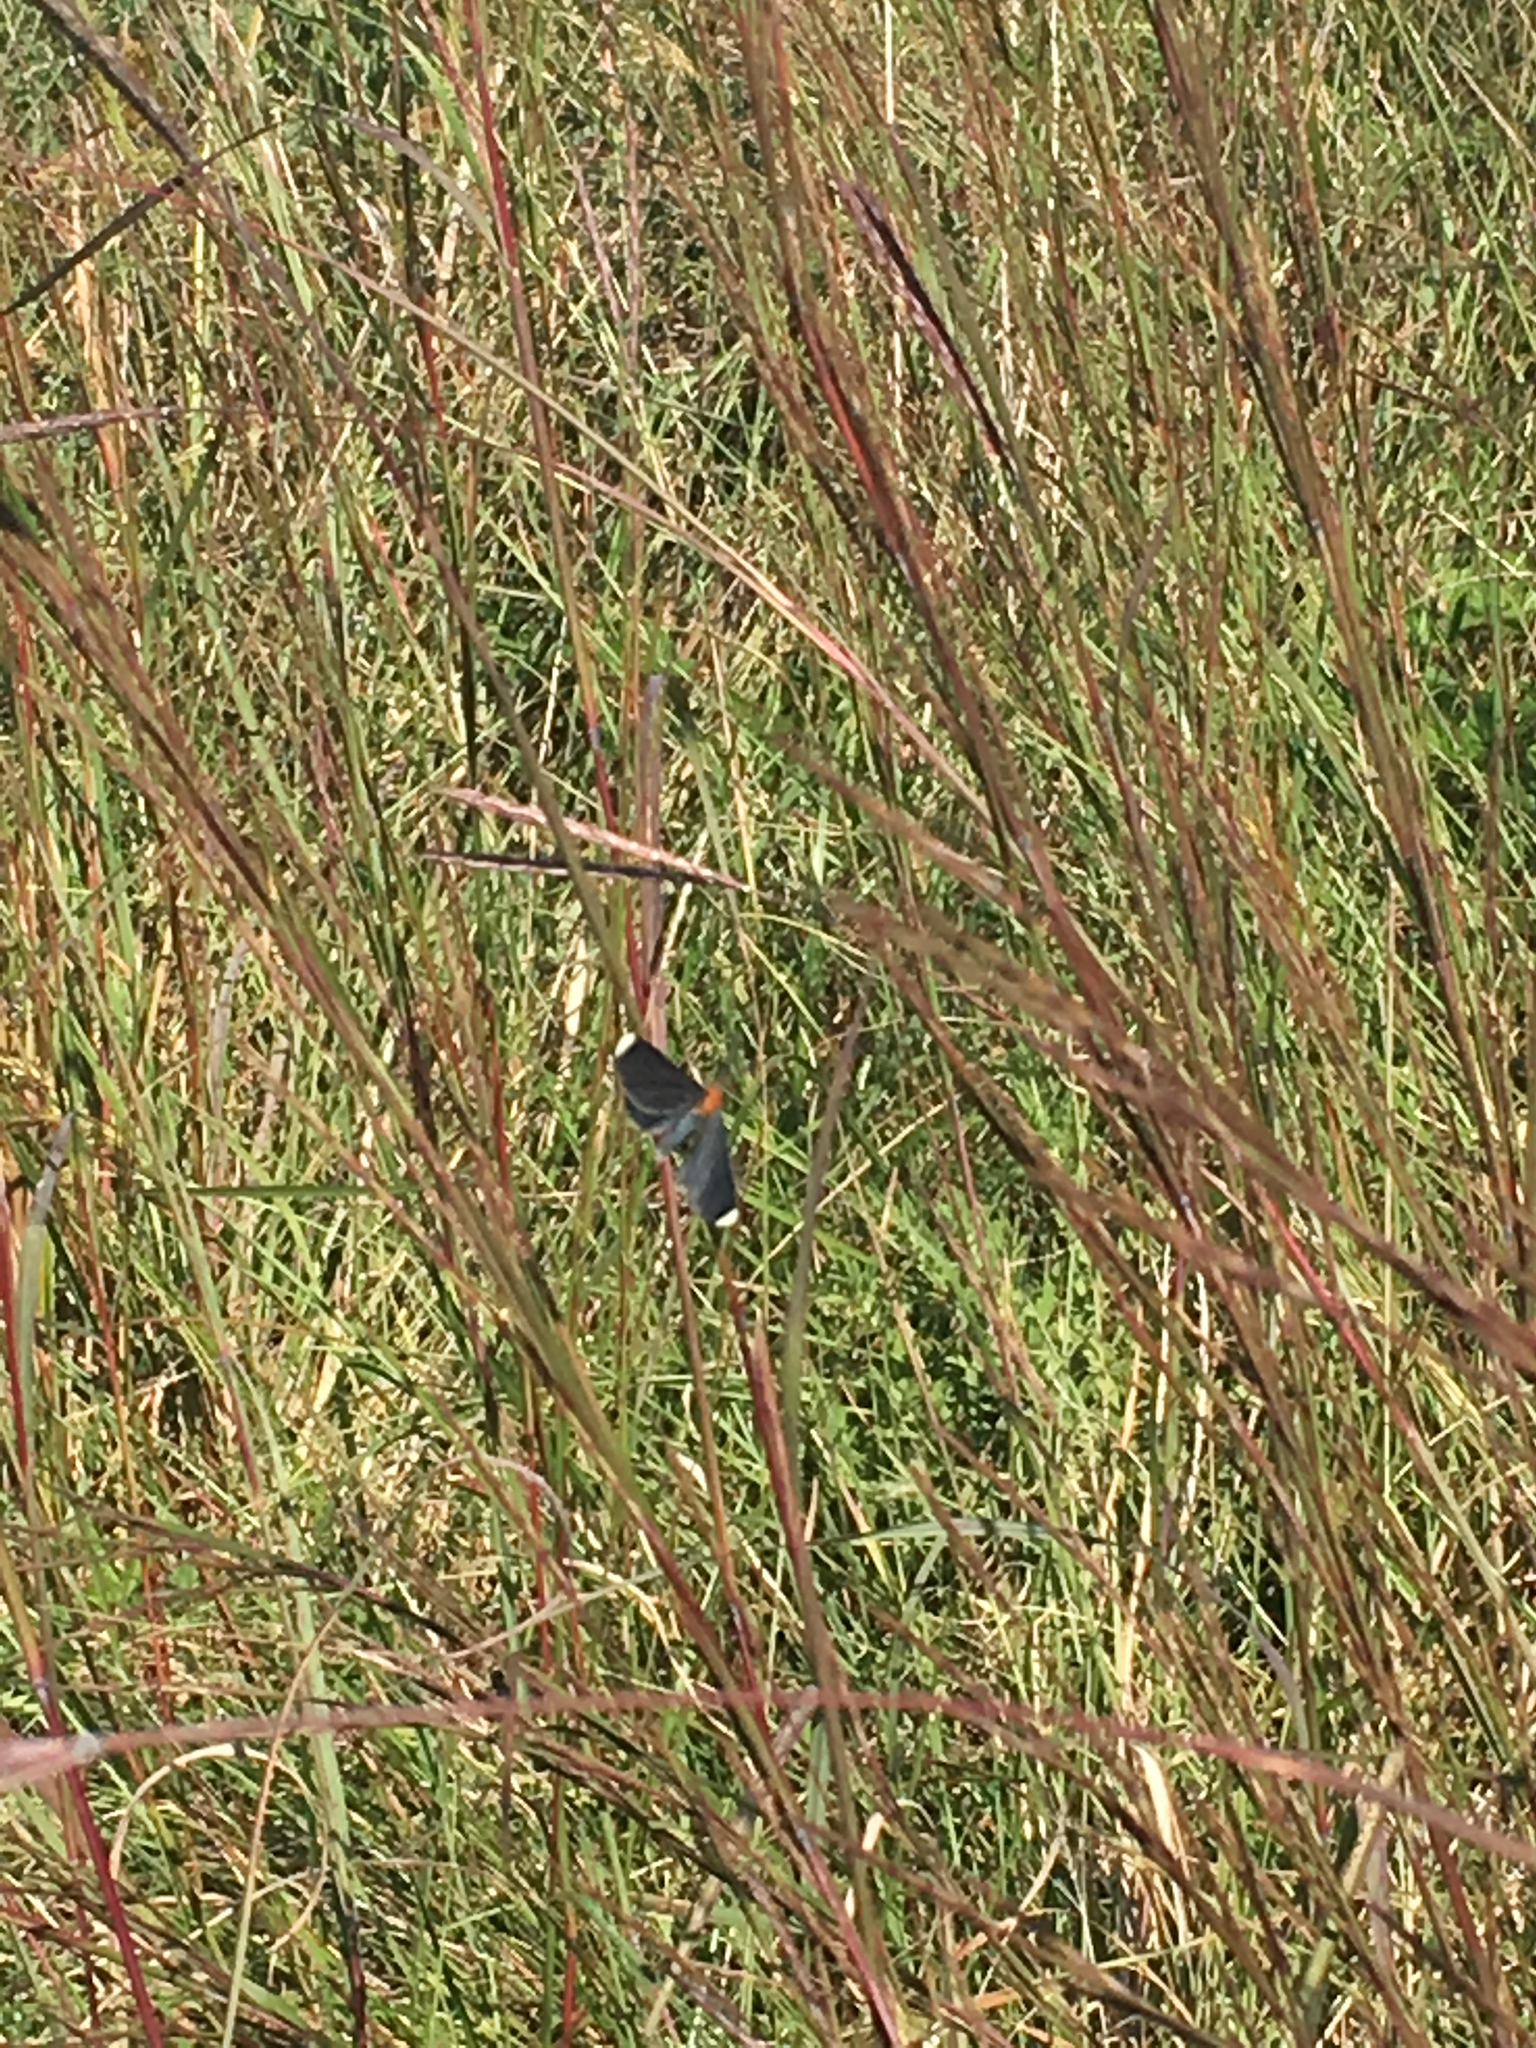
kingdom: Animalia
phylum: Arthropoda
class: Insecta
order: Lepidoptera
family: Geometridae
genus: Melanchroia
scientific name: Melanchroia chephise
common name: White-tipped black
